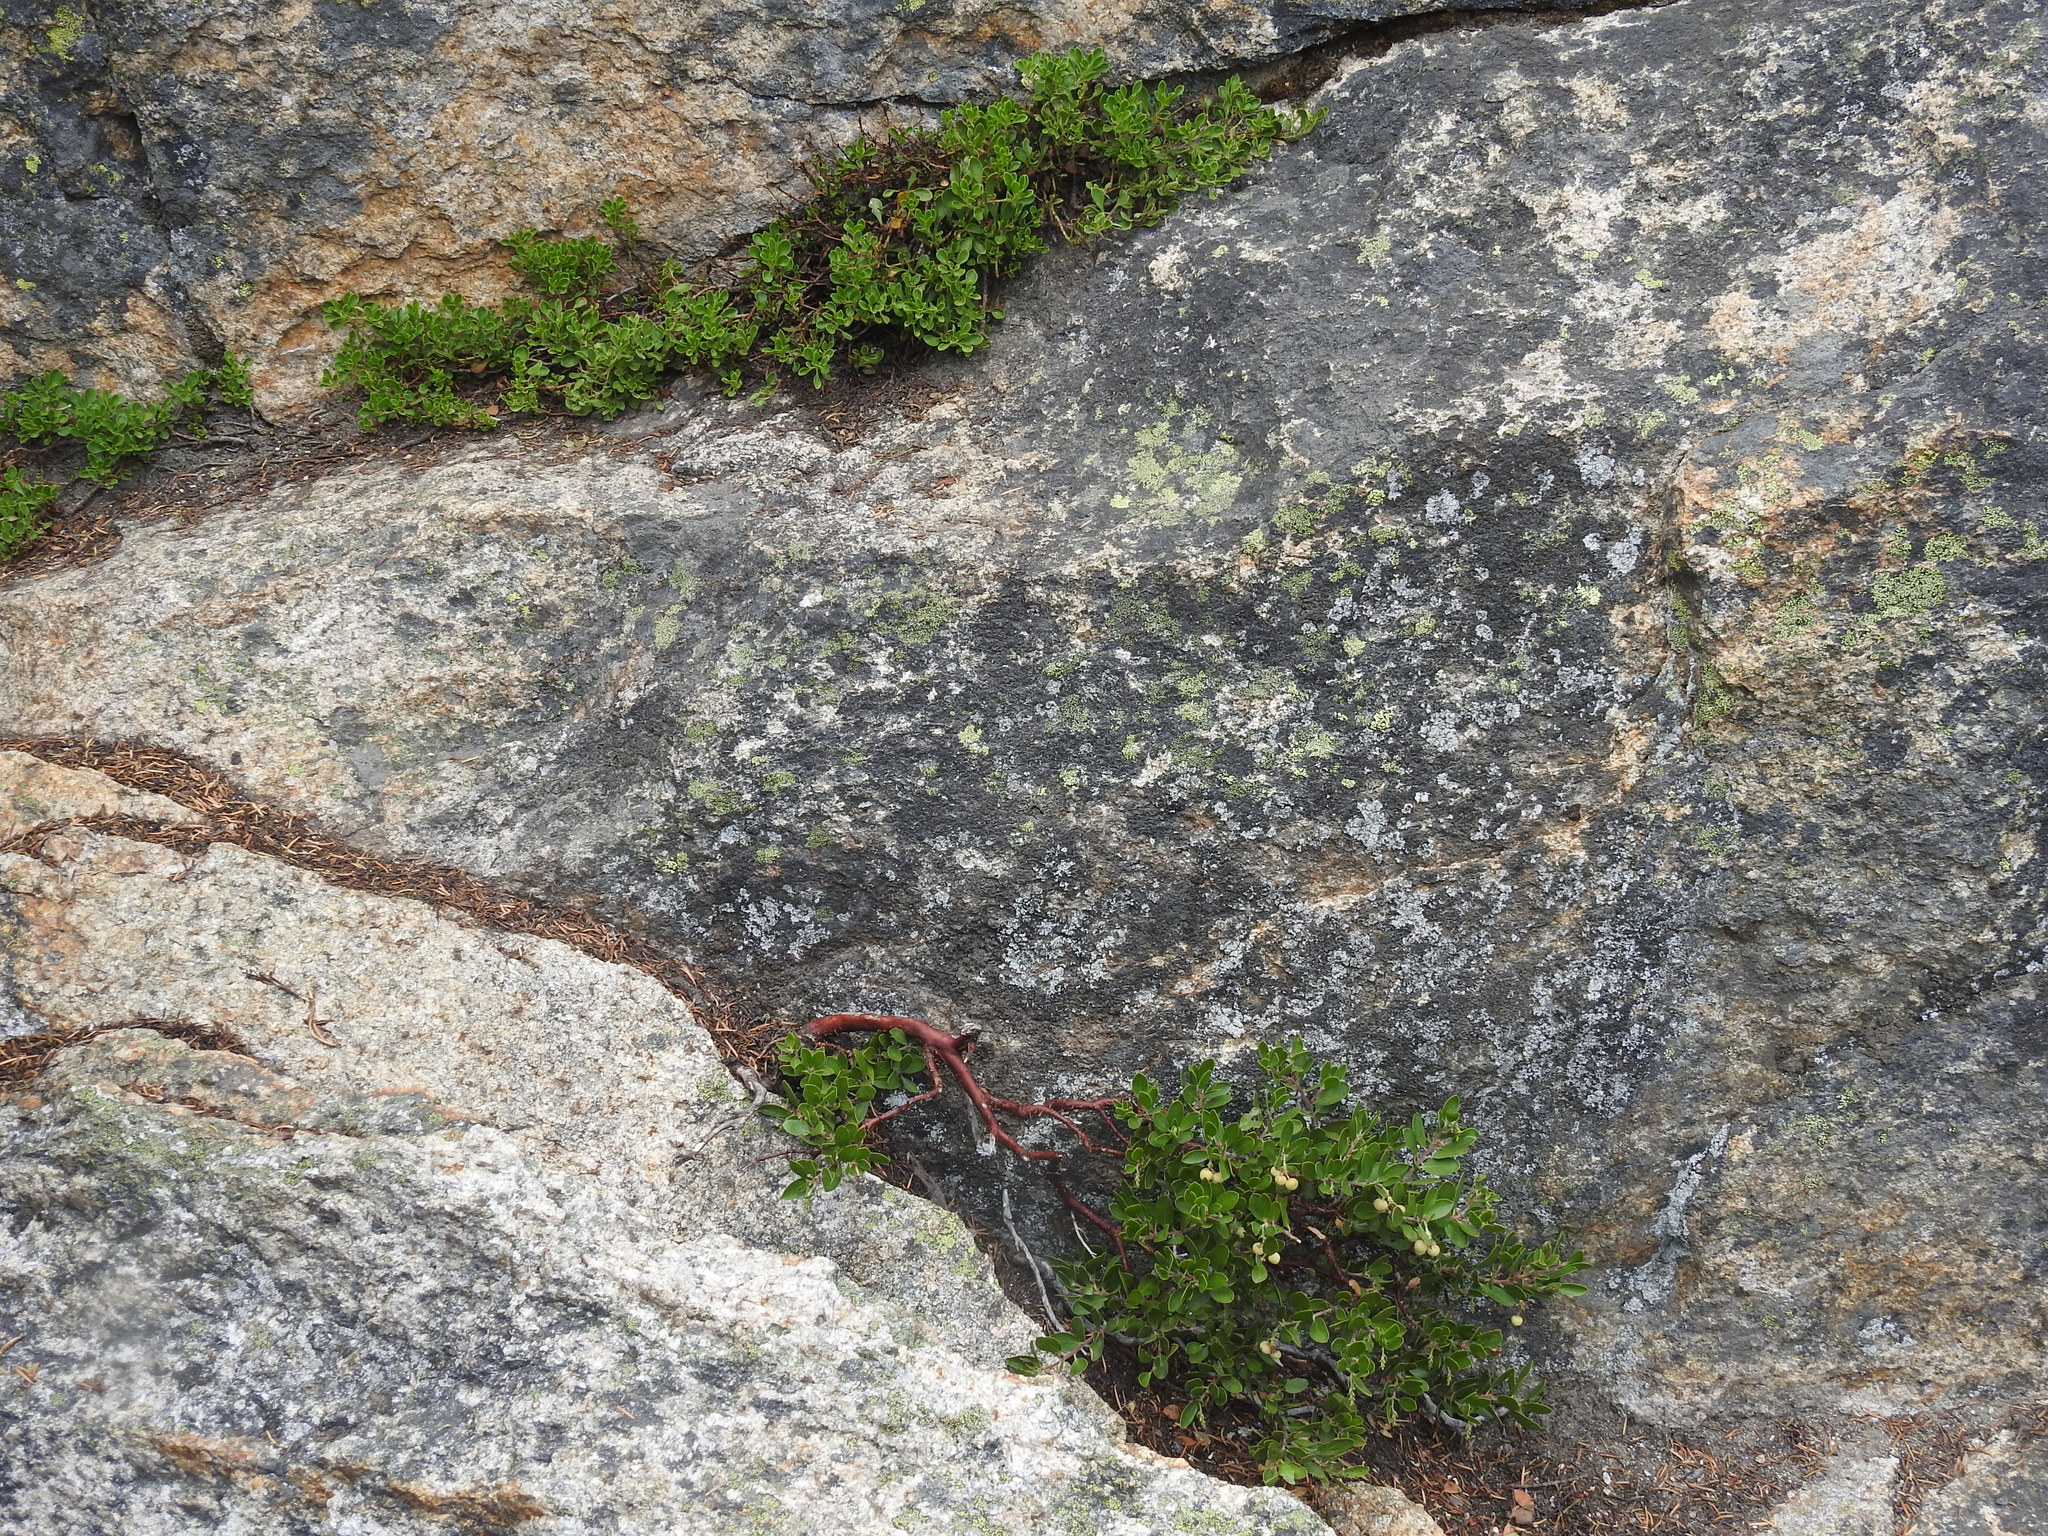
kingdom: Plantae
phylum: Tracheophyta
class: Magnoliopsida
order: Ericales
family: Ericaceae
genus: Arctostaphylos
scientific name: Arctostaphylos nevadensis
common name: Pinemat manzanita
